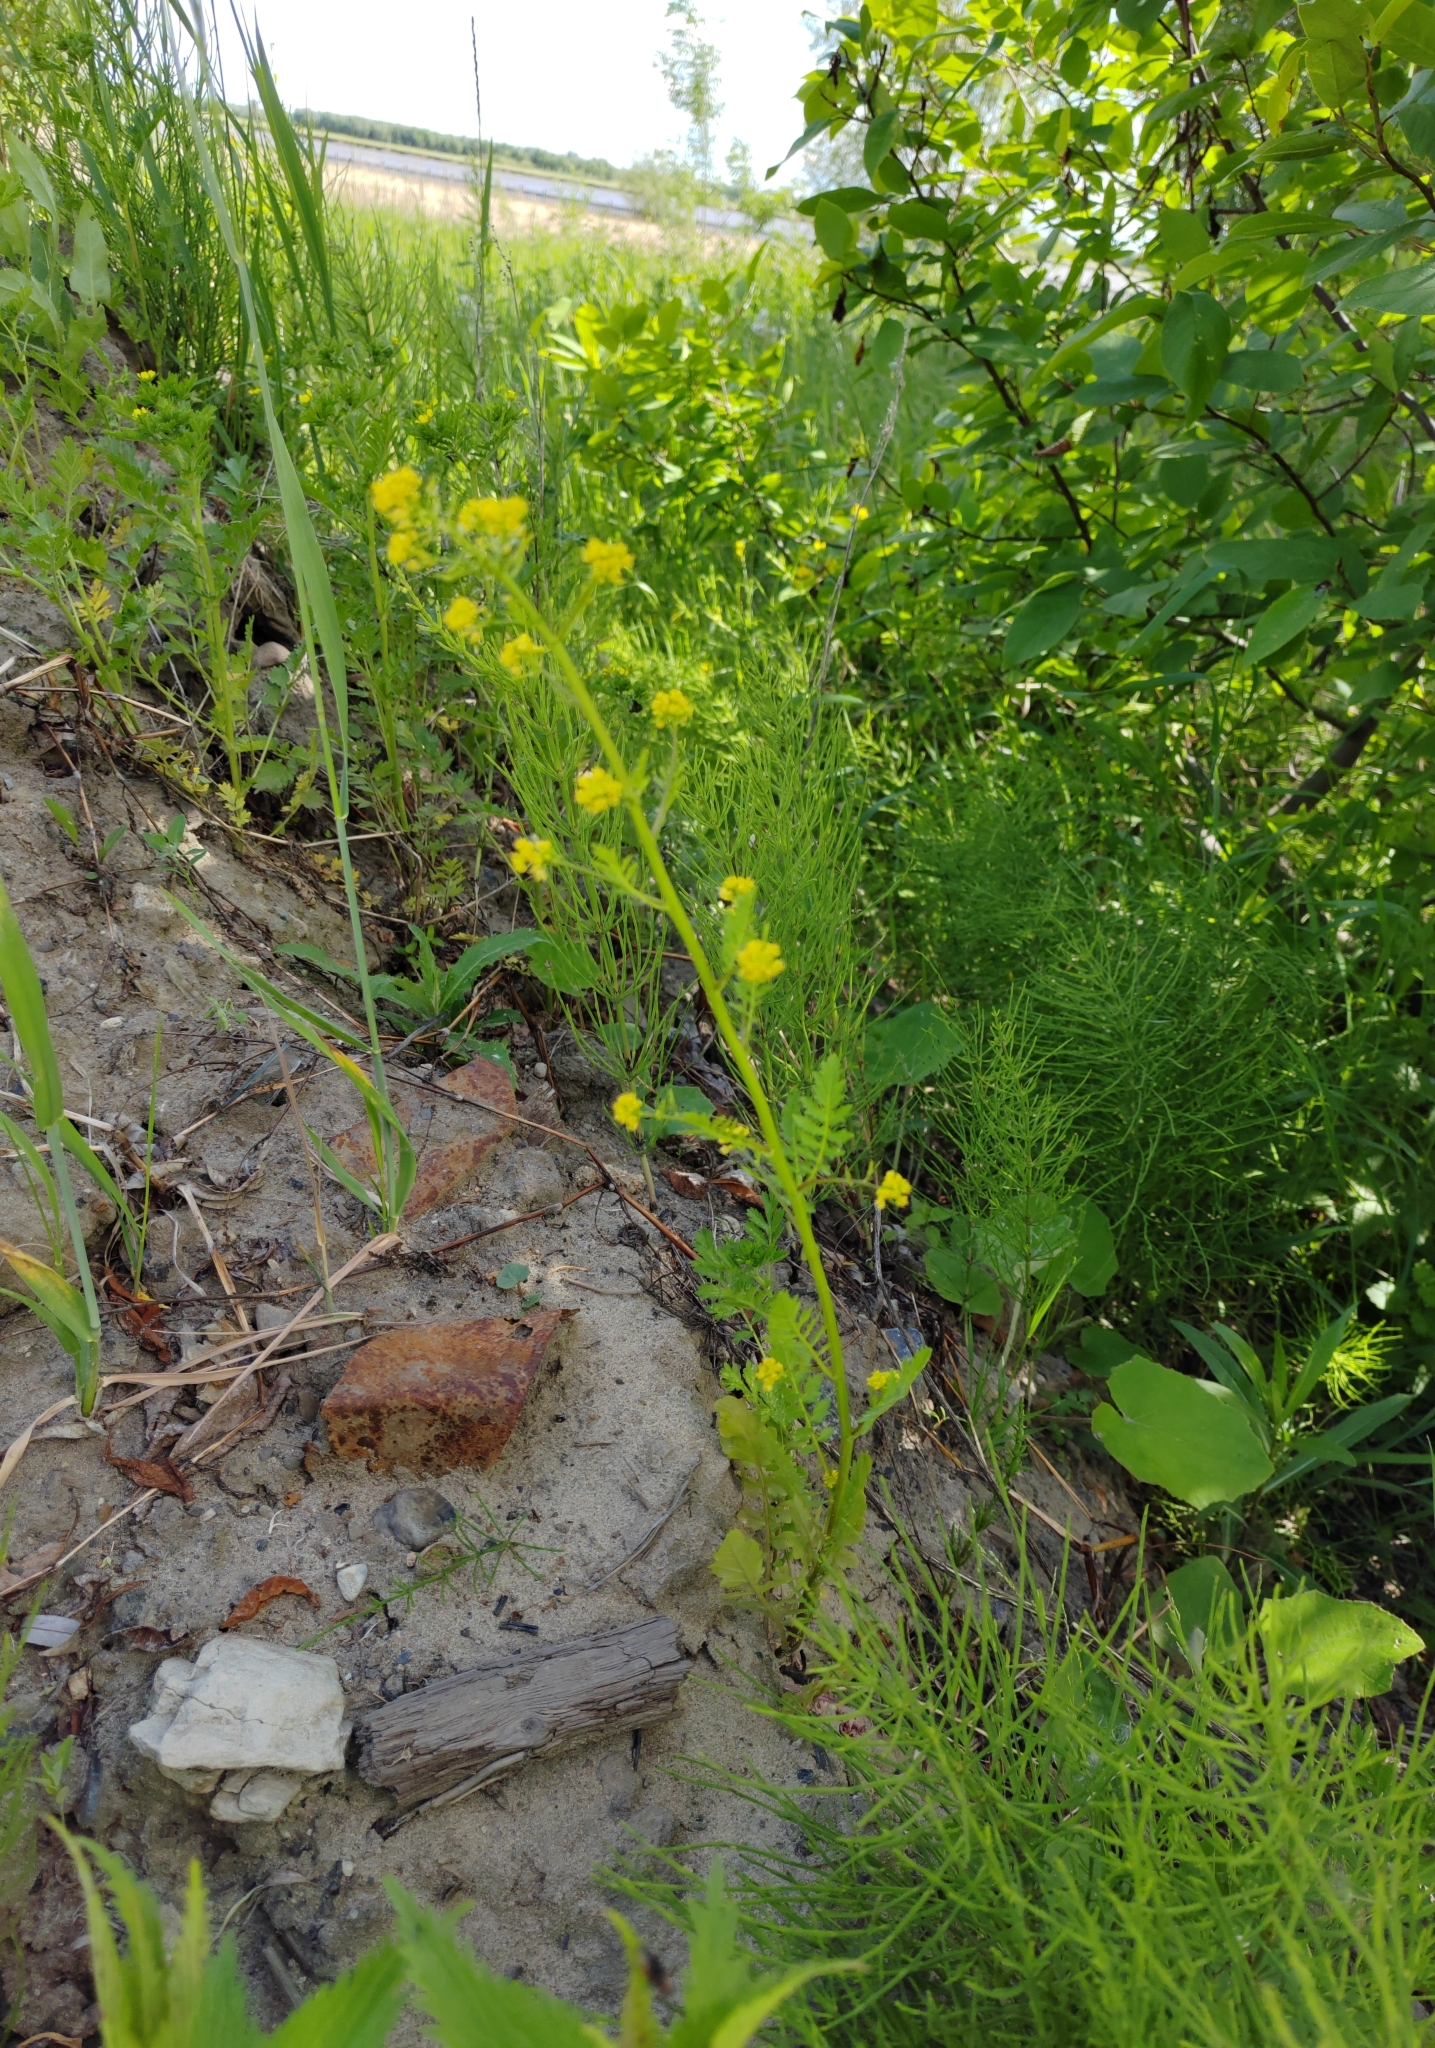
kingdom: Plantae
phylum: Tracheophyta
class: Magnoliopsida
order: Brassicales
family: Brassicaceae
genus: Rorippa
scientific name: Rorippa palustris
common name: Marsh yellow-cress
